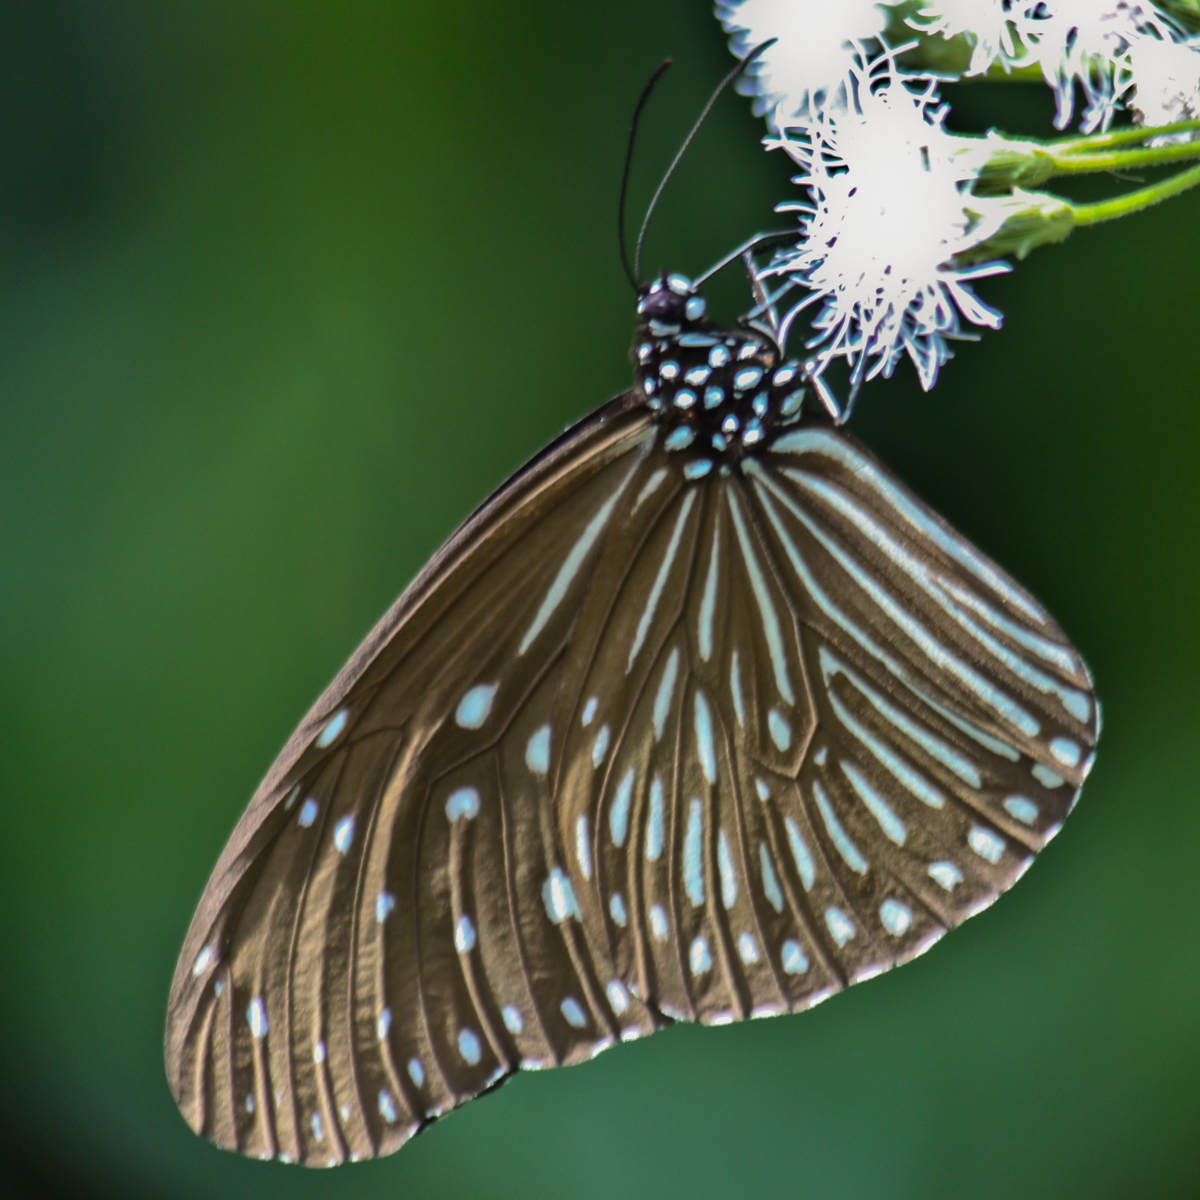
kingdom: Animalia
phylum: Arthropoda
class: Insecta
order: Lepidoptera
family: Nymphalidae
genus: Euploea
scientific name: Euploea mulciber
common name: Striped blue crow butterfly
